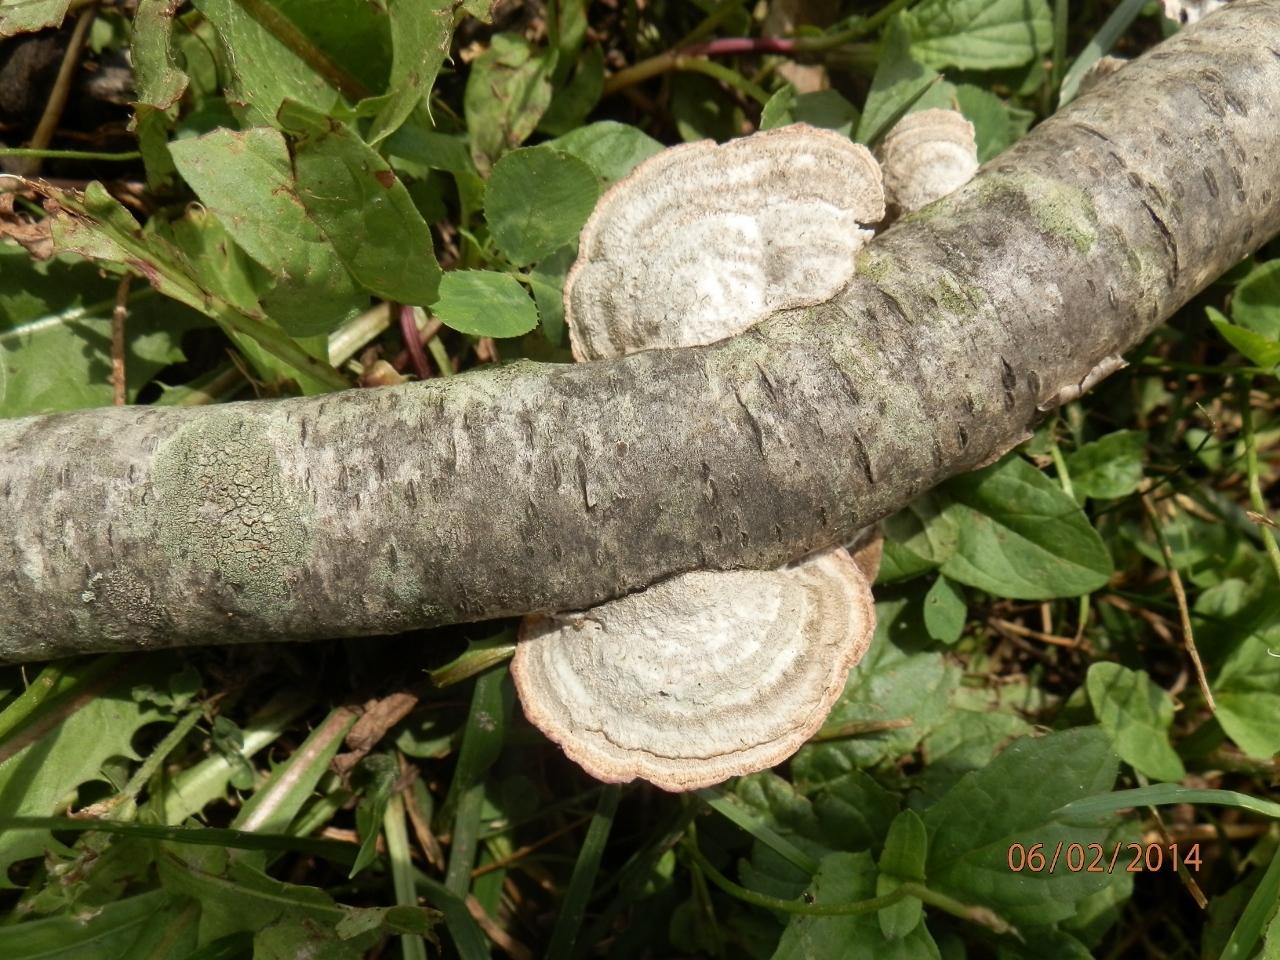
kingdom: Fungi
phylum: Basidiomycota
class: Agaricomycetes
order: Hymenochaetales
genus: Trichaptum
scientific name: Trichaptum biforme
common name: Violet-toothed polypore
